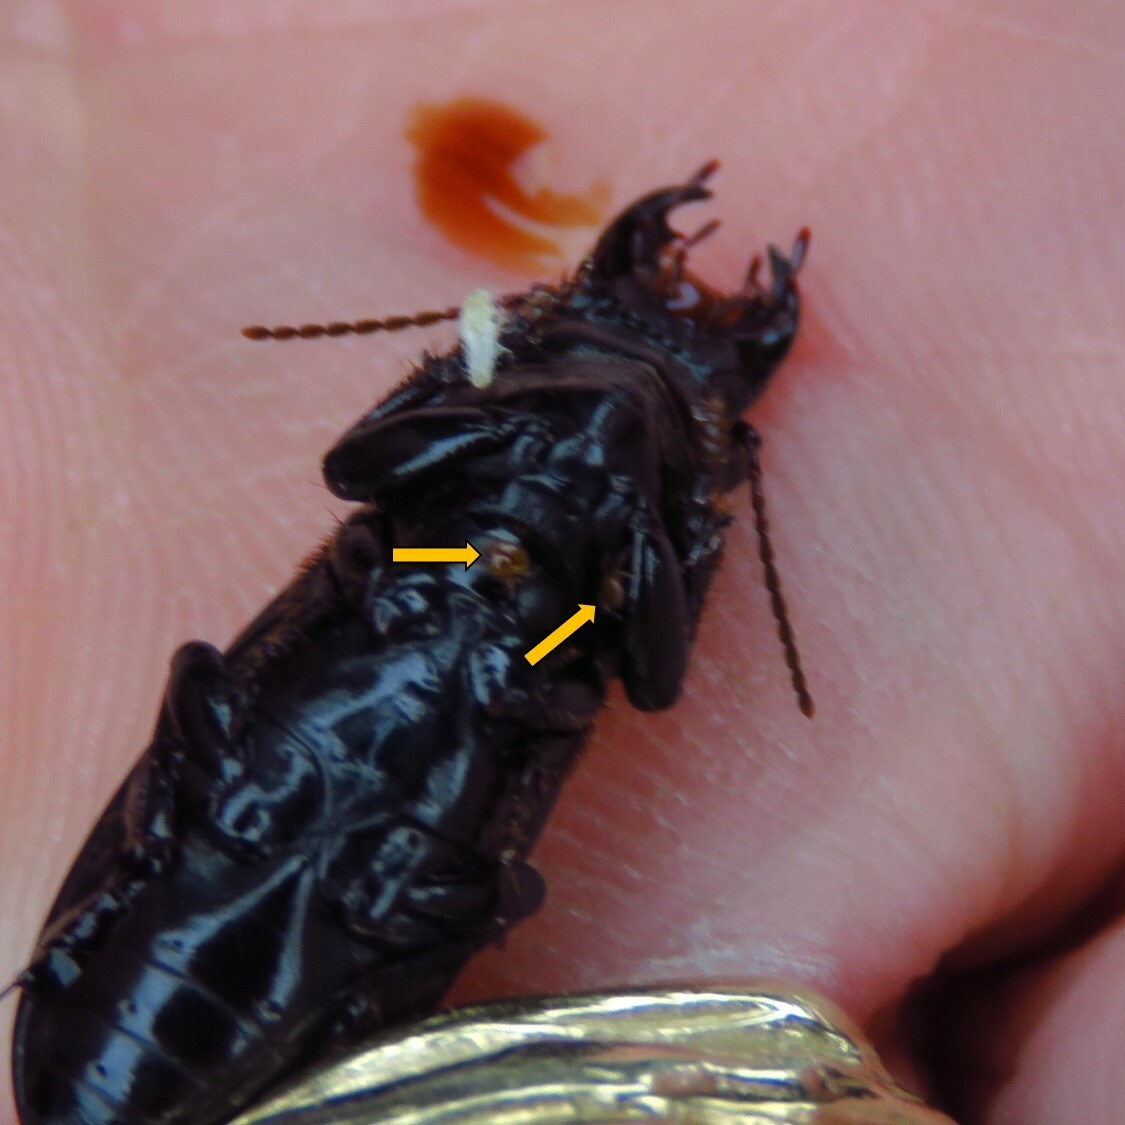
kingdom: Animalia
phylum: Arthropoda
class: Arachnida
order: Mesostigmata
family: Parantennulidae
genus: Micromegistus
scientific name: Micromegistus bakeri
